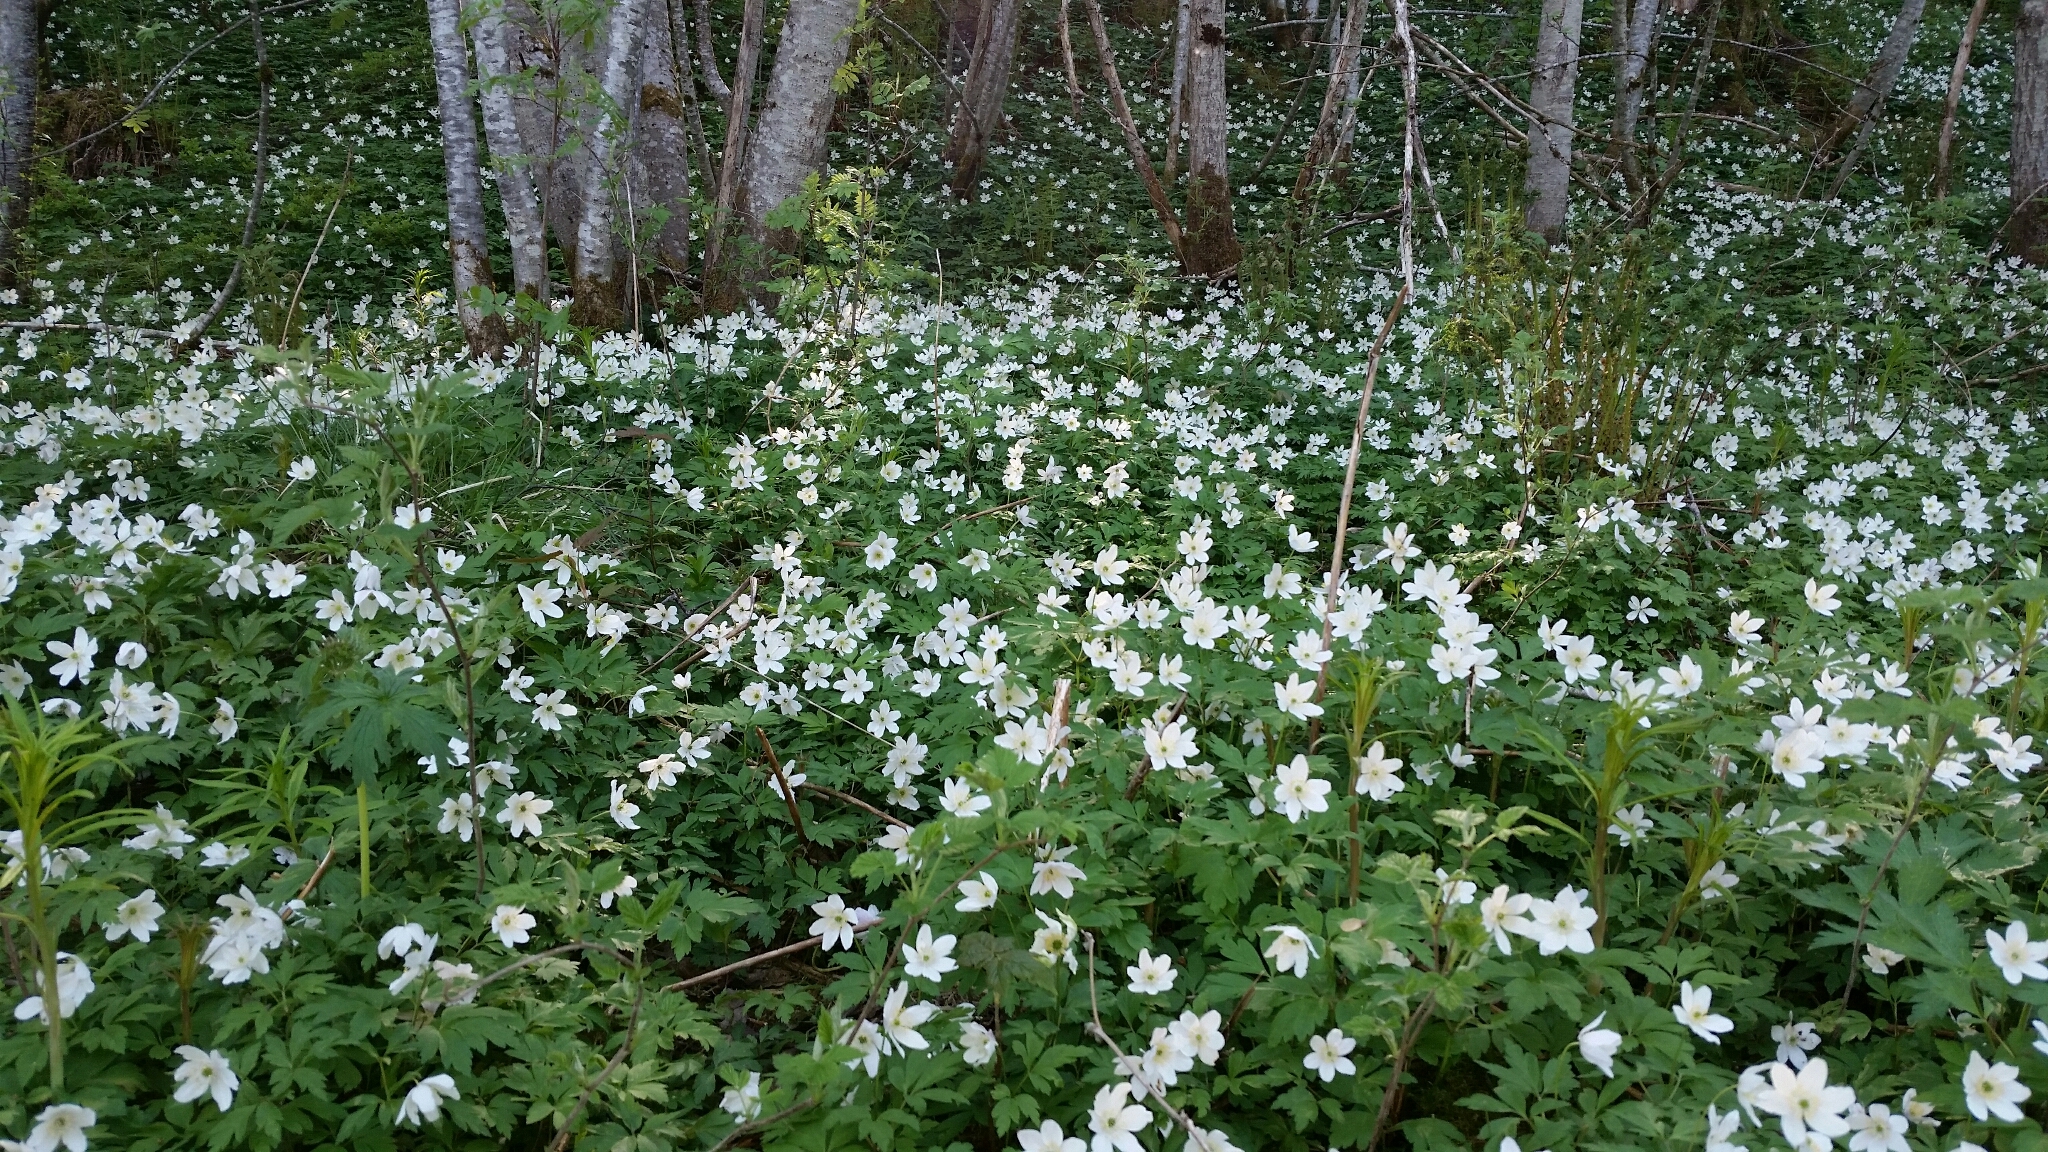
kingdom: Plantae
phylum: Tracheophyta
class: Magnoliopsida
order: Ranunculales
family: Ranunculaceae
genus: Anemone
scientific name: Anemone nemorosa
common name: Wood anemone
